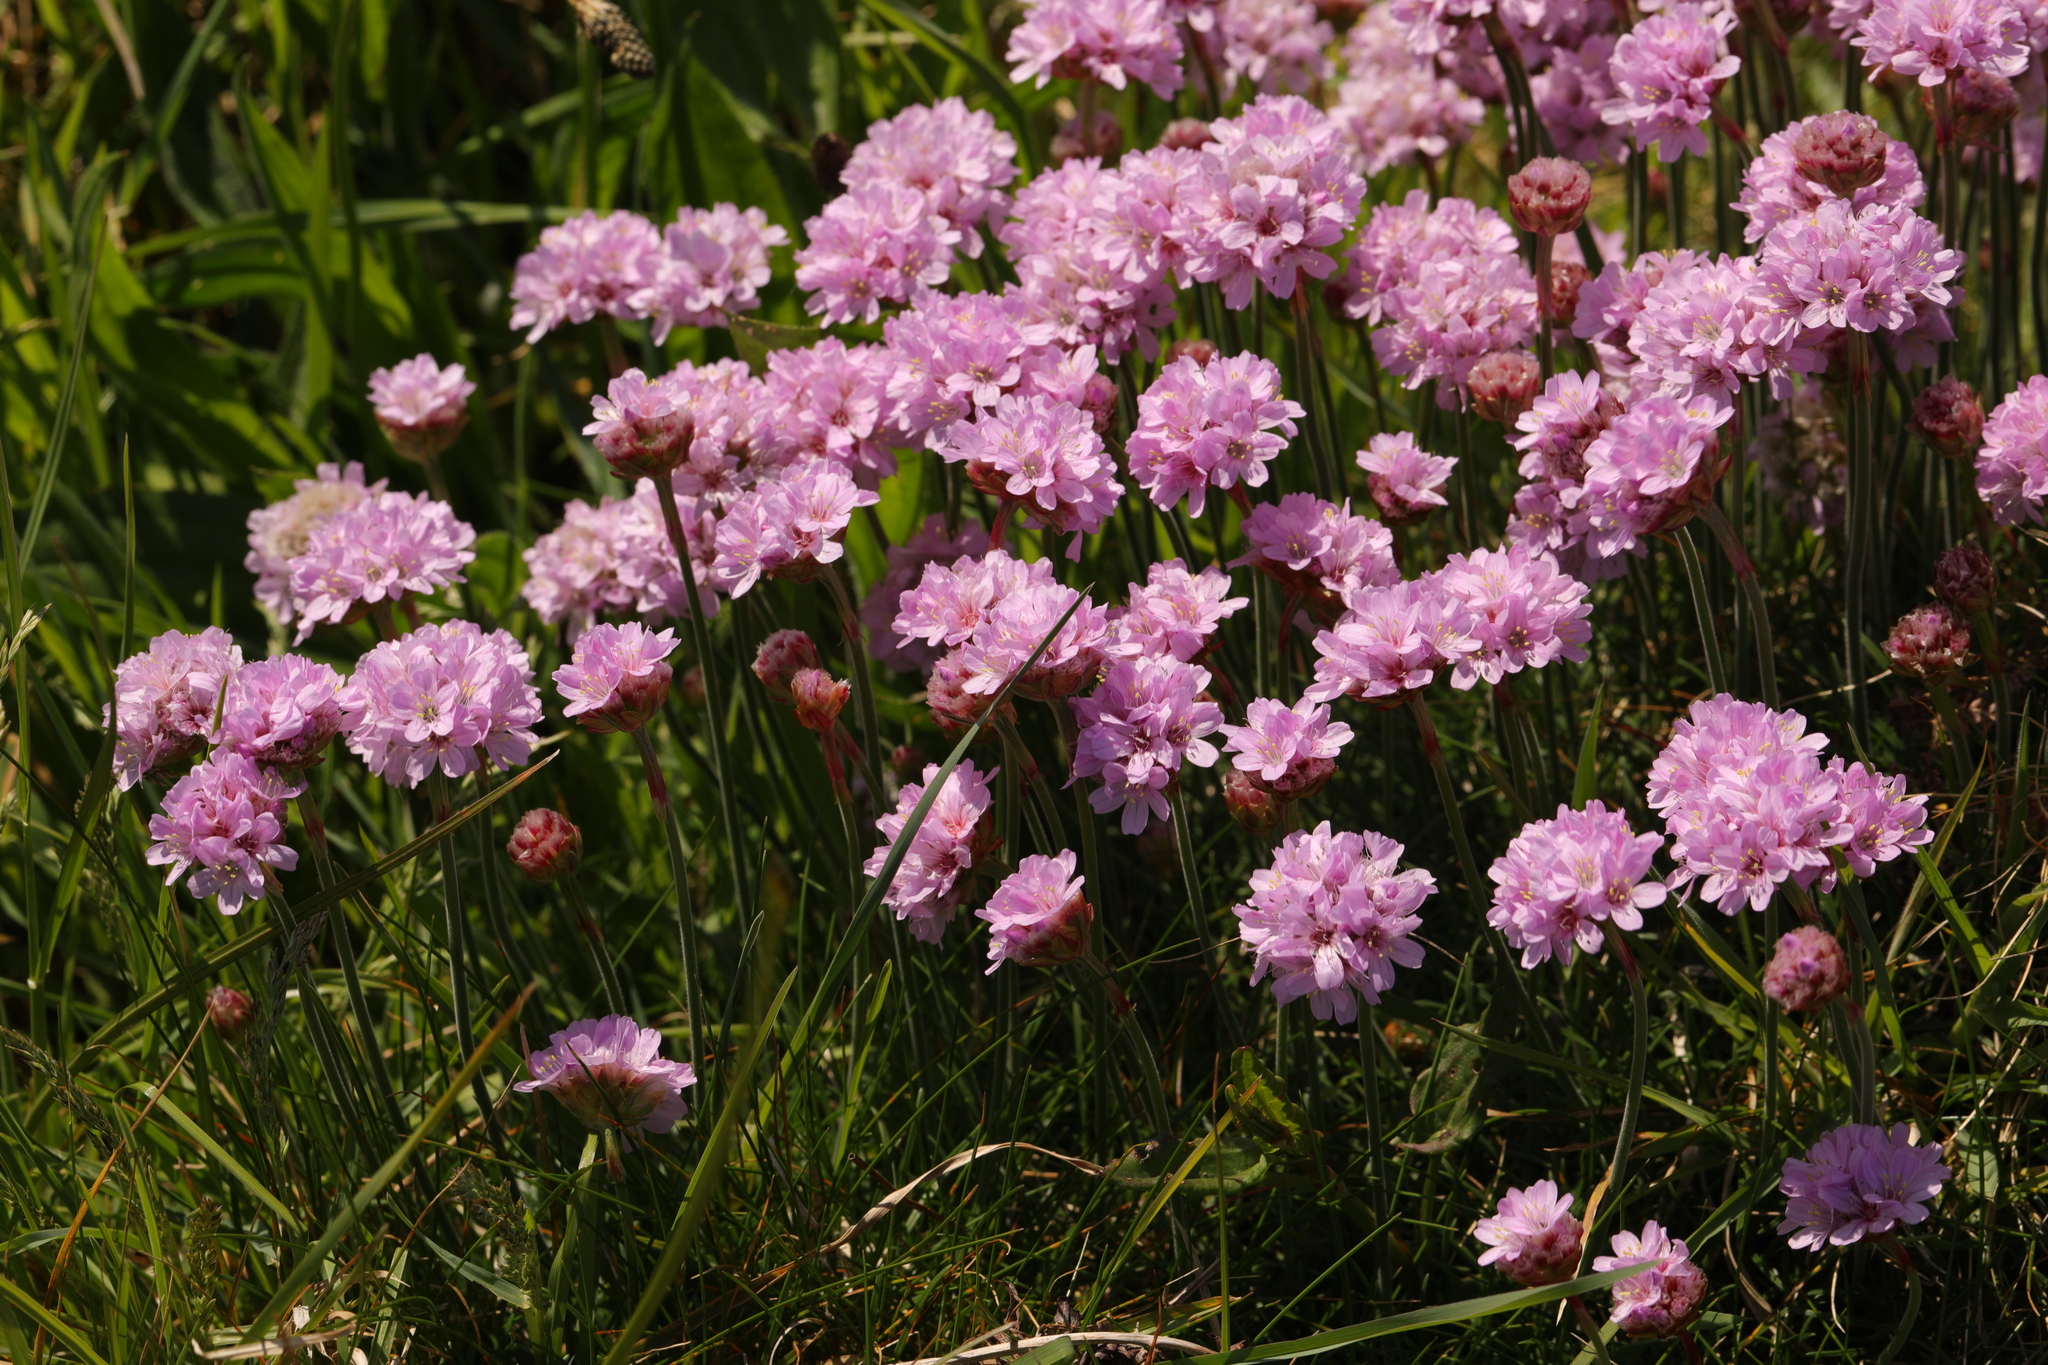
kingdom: Plantae
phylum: Tracheophyta
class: Magnoliopsida
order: Caryophyllales
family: Plumbaginaceae
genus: Armeria
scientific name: Armeria maritima
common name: Thrift
